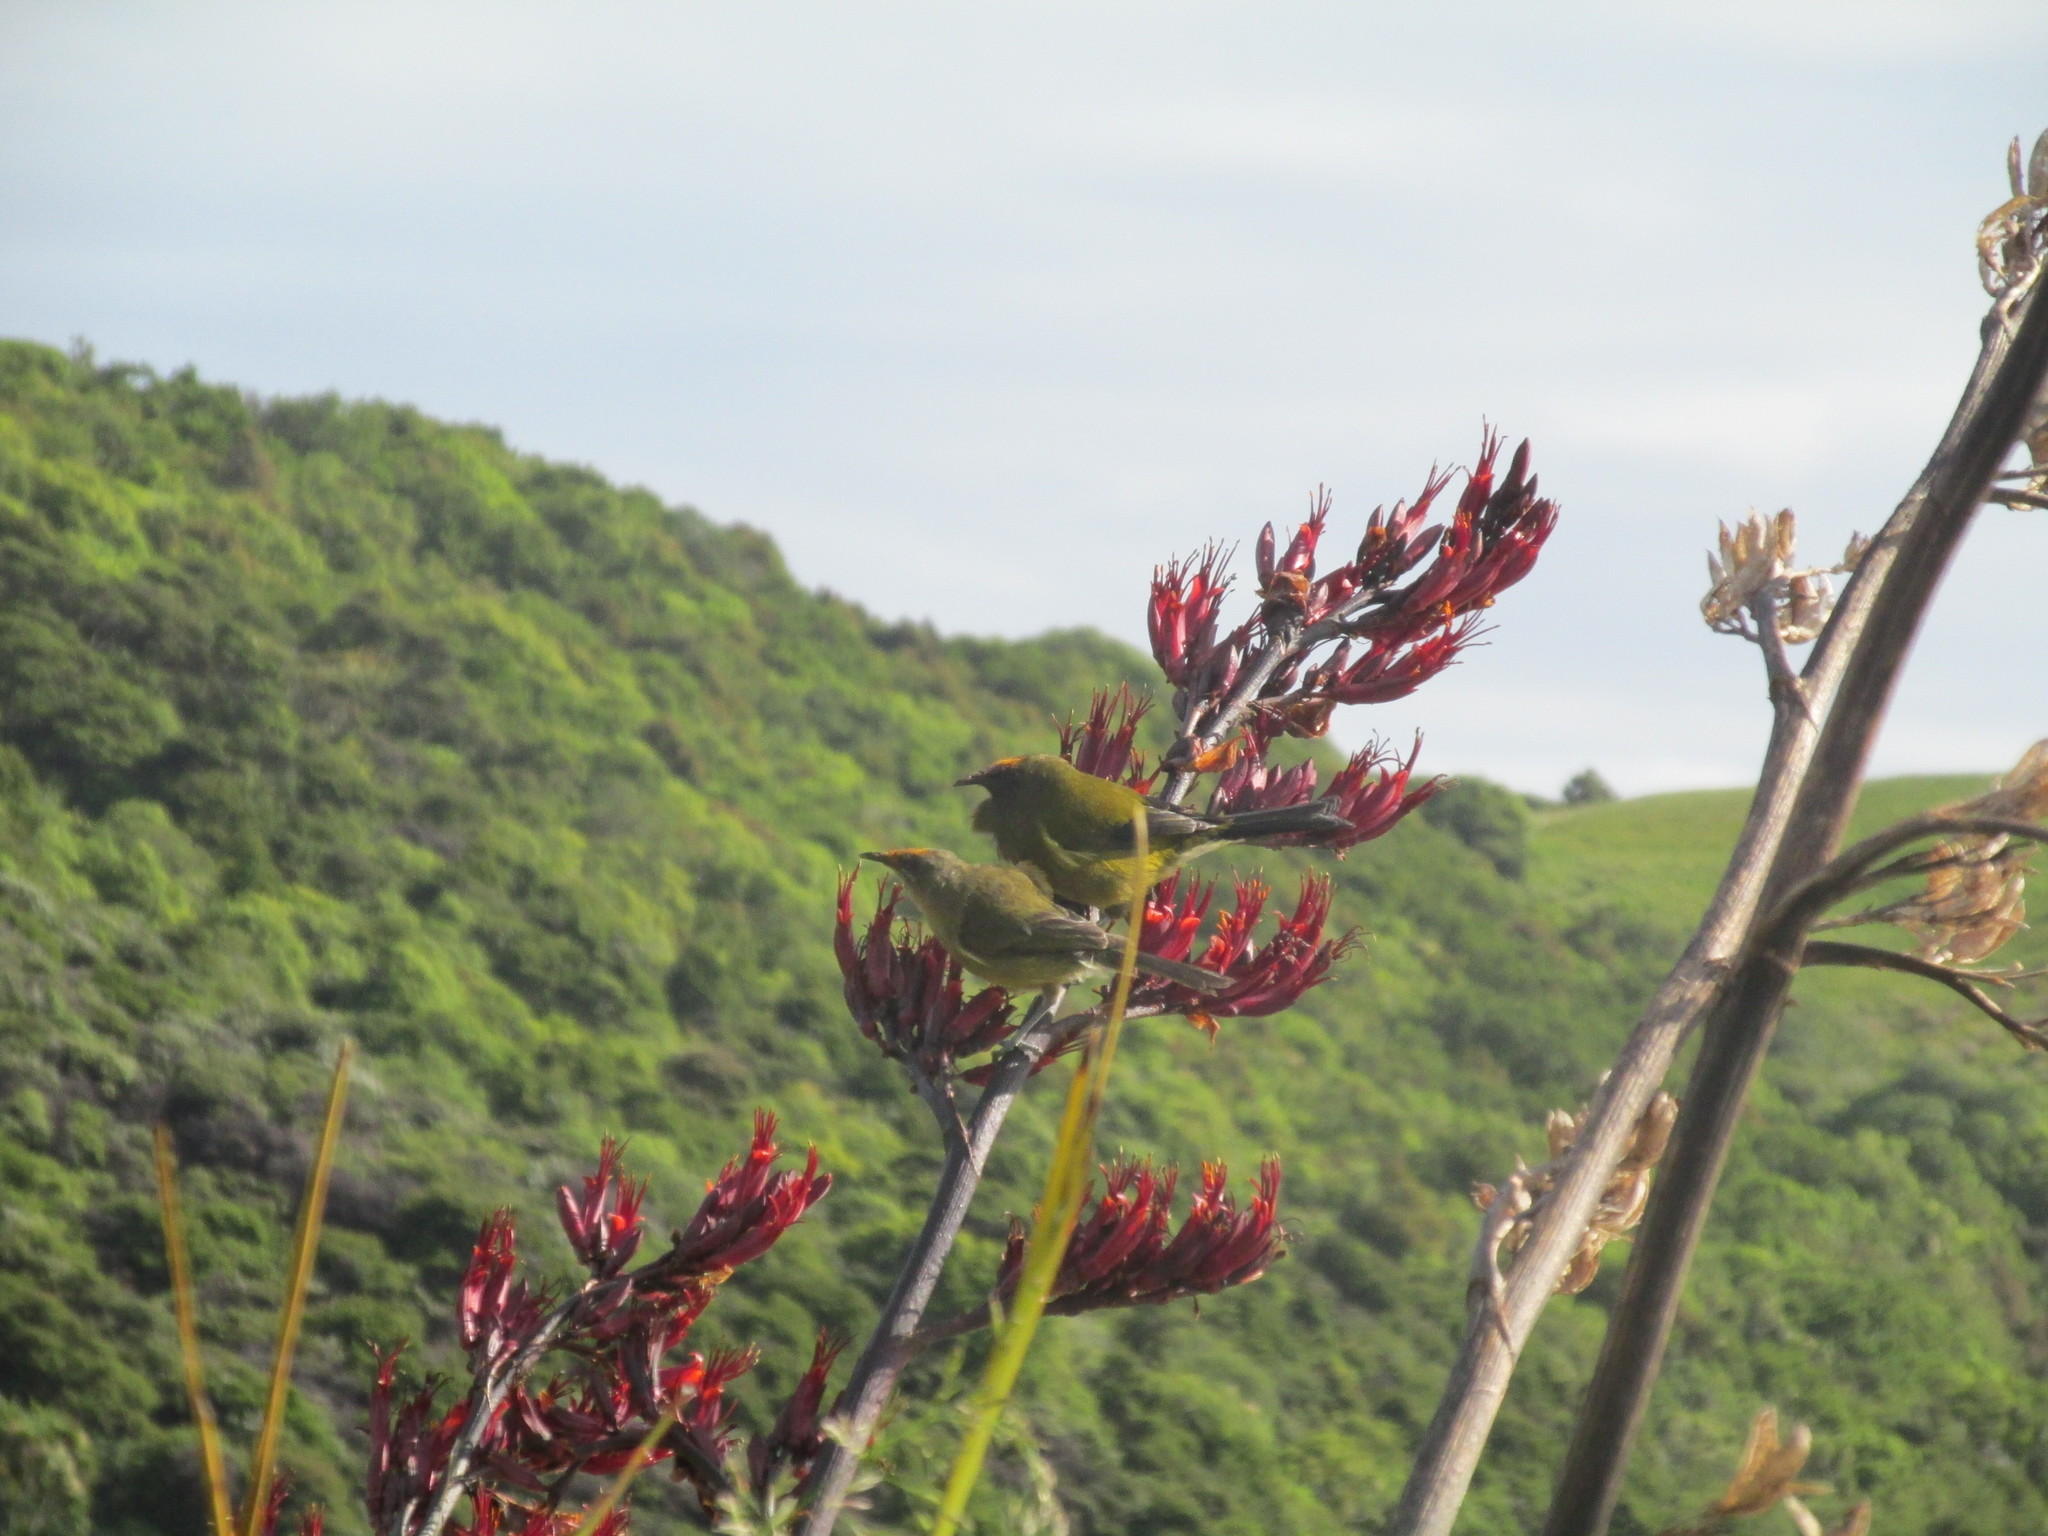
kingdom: Animalia
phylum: Chordata
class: Aves
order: Passeriformes
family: Meliphagidae
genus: Anthornis
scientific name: Anthornis melanura
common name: New zealand bellbird
